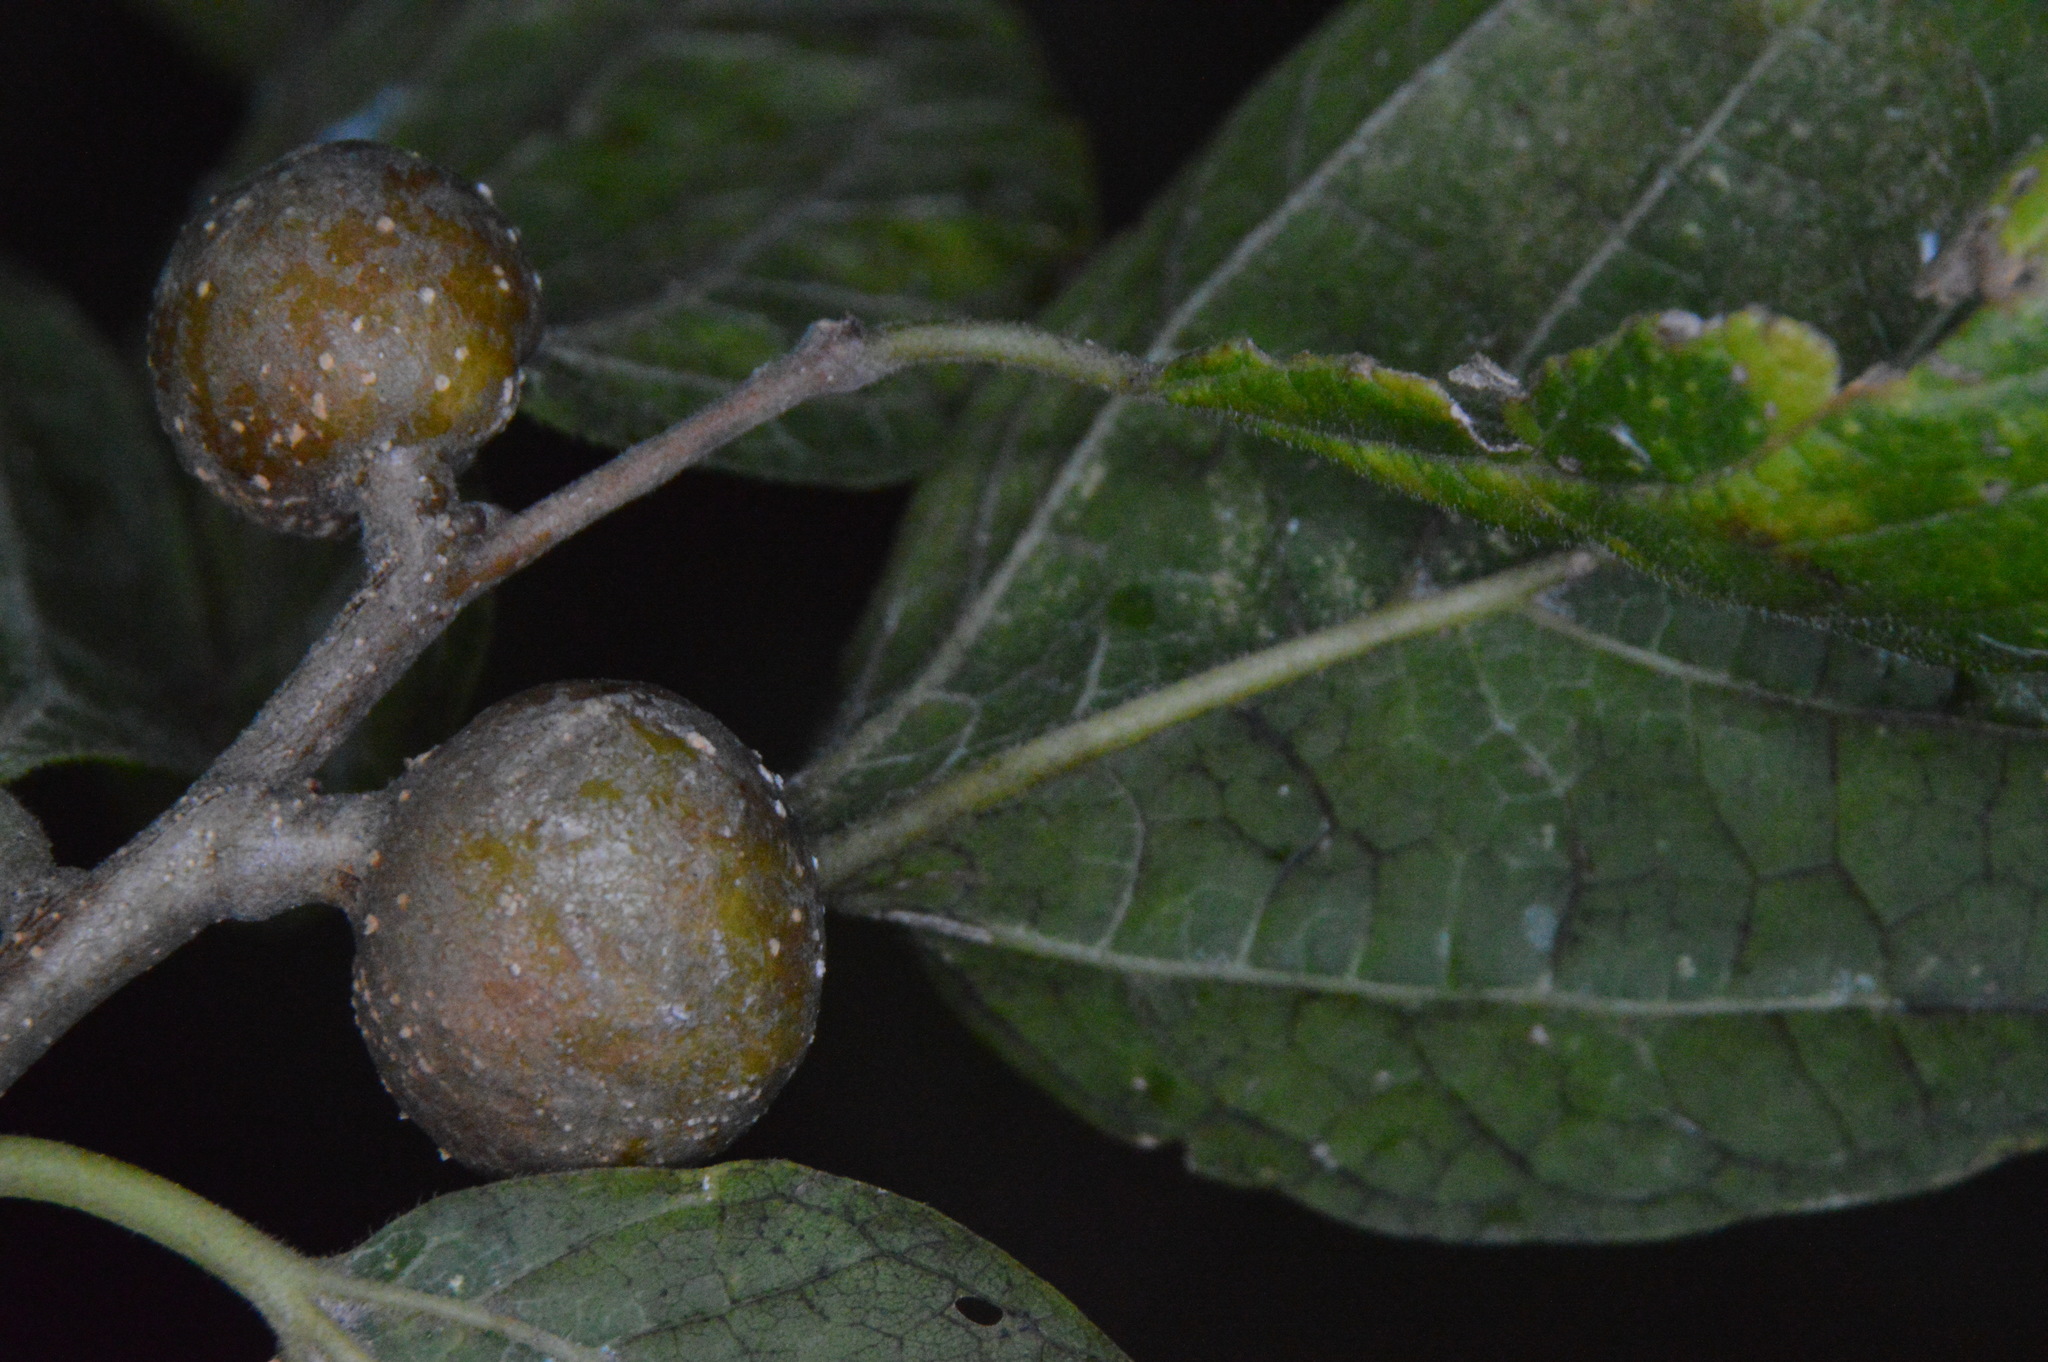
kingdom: Animalia
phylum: Arthropoda
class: Insecta
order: Hemiptera
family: Aphalaridae
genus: Pachypsylla
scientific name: Pachypsylla venusta
